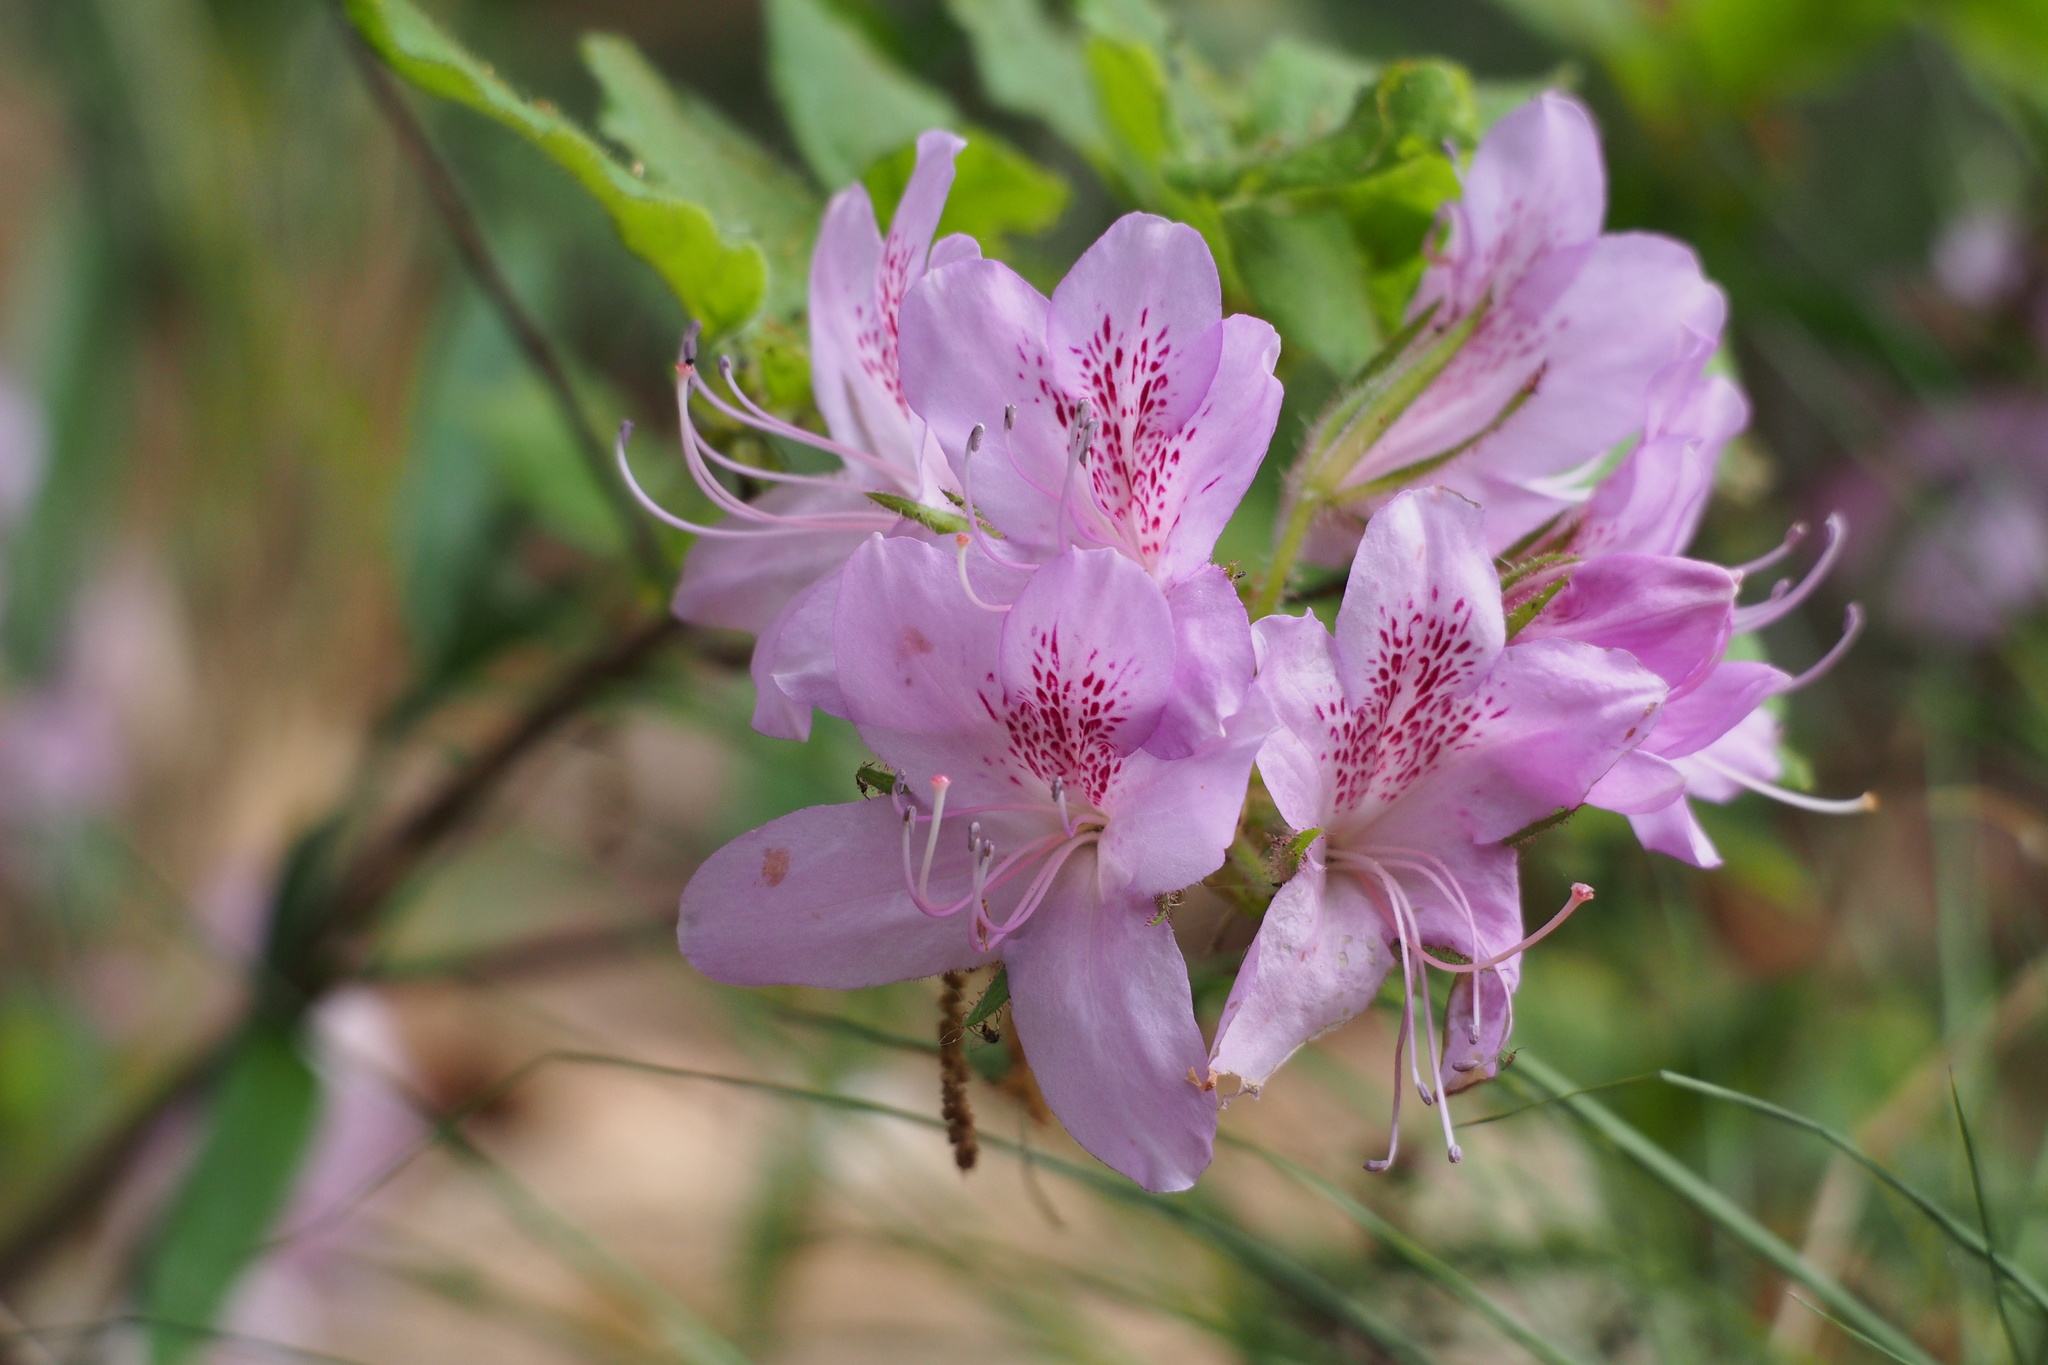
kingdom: Plantae
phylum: Tracheophyta
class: Magnoliopsida
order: Ericales
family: Ericaceae
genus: Rhododendron
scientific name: Rhododendron stenopetalum
